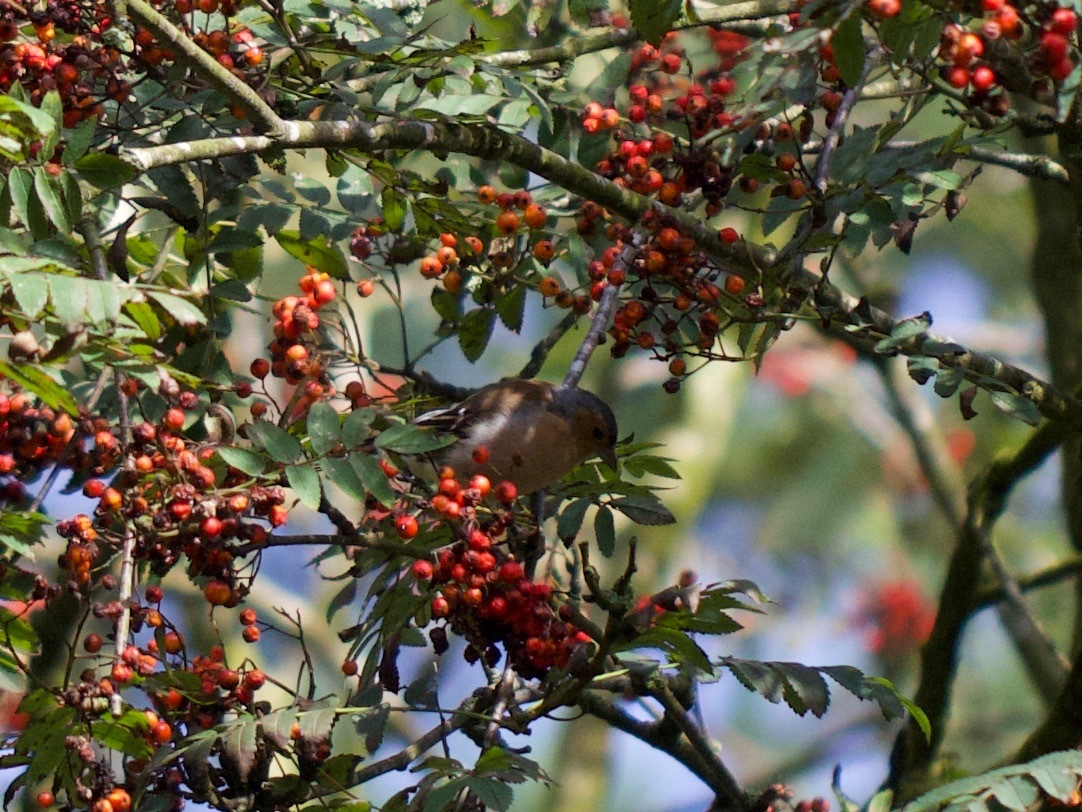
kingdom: Animalia
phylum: Chordata
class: Aves
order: Passeriformes
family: Fringillidae
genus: Fringilla
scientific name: Fringilla coelebs
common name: Common chaffinch
